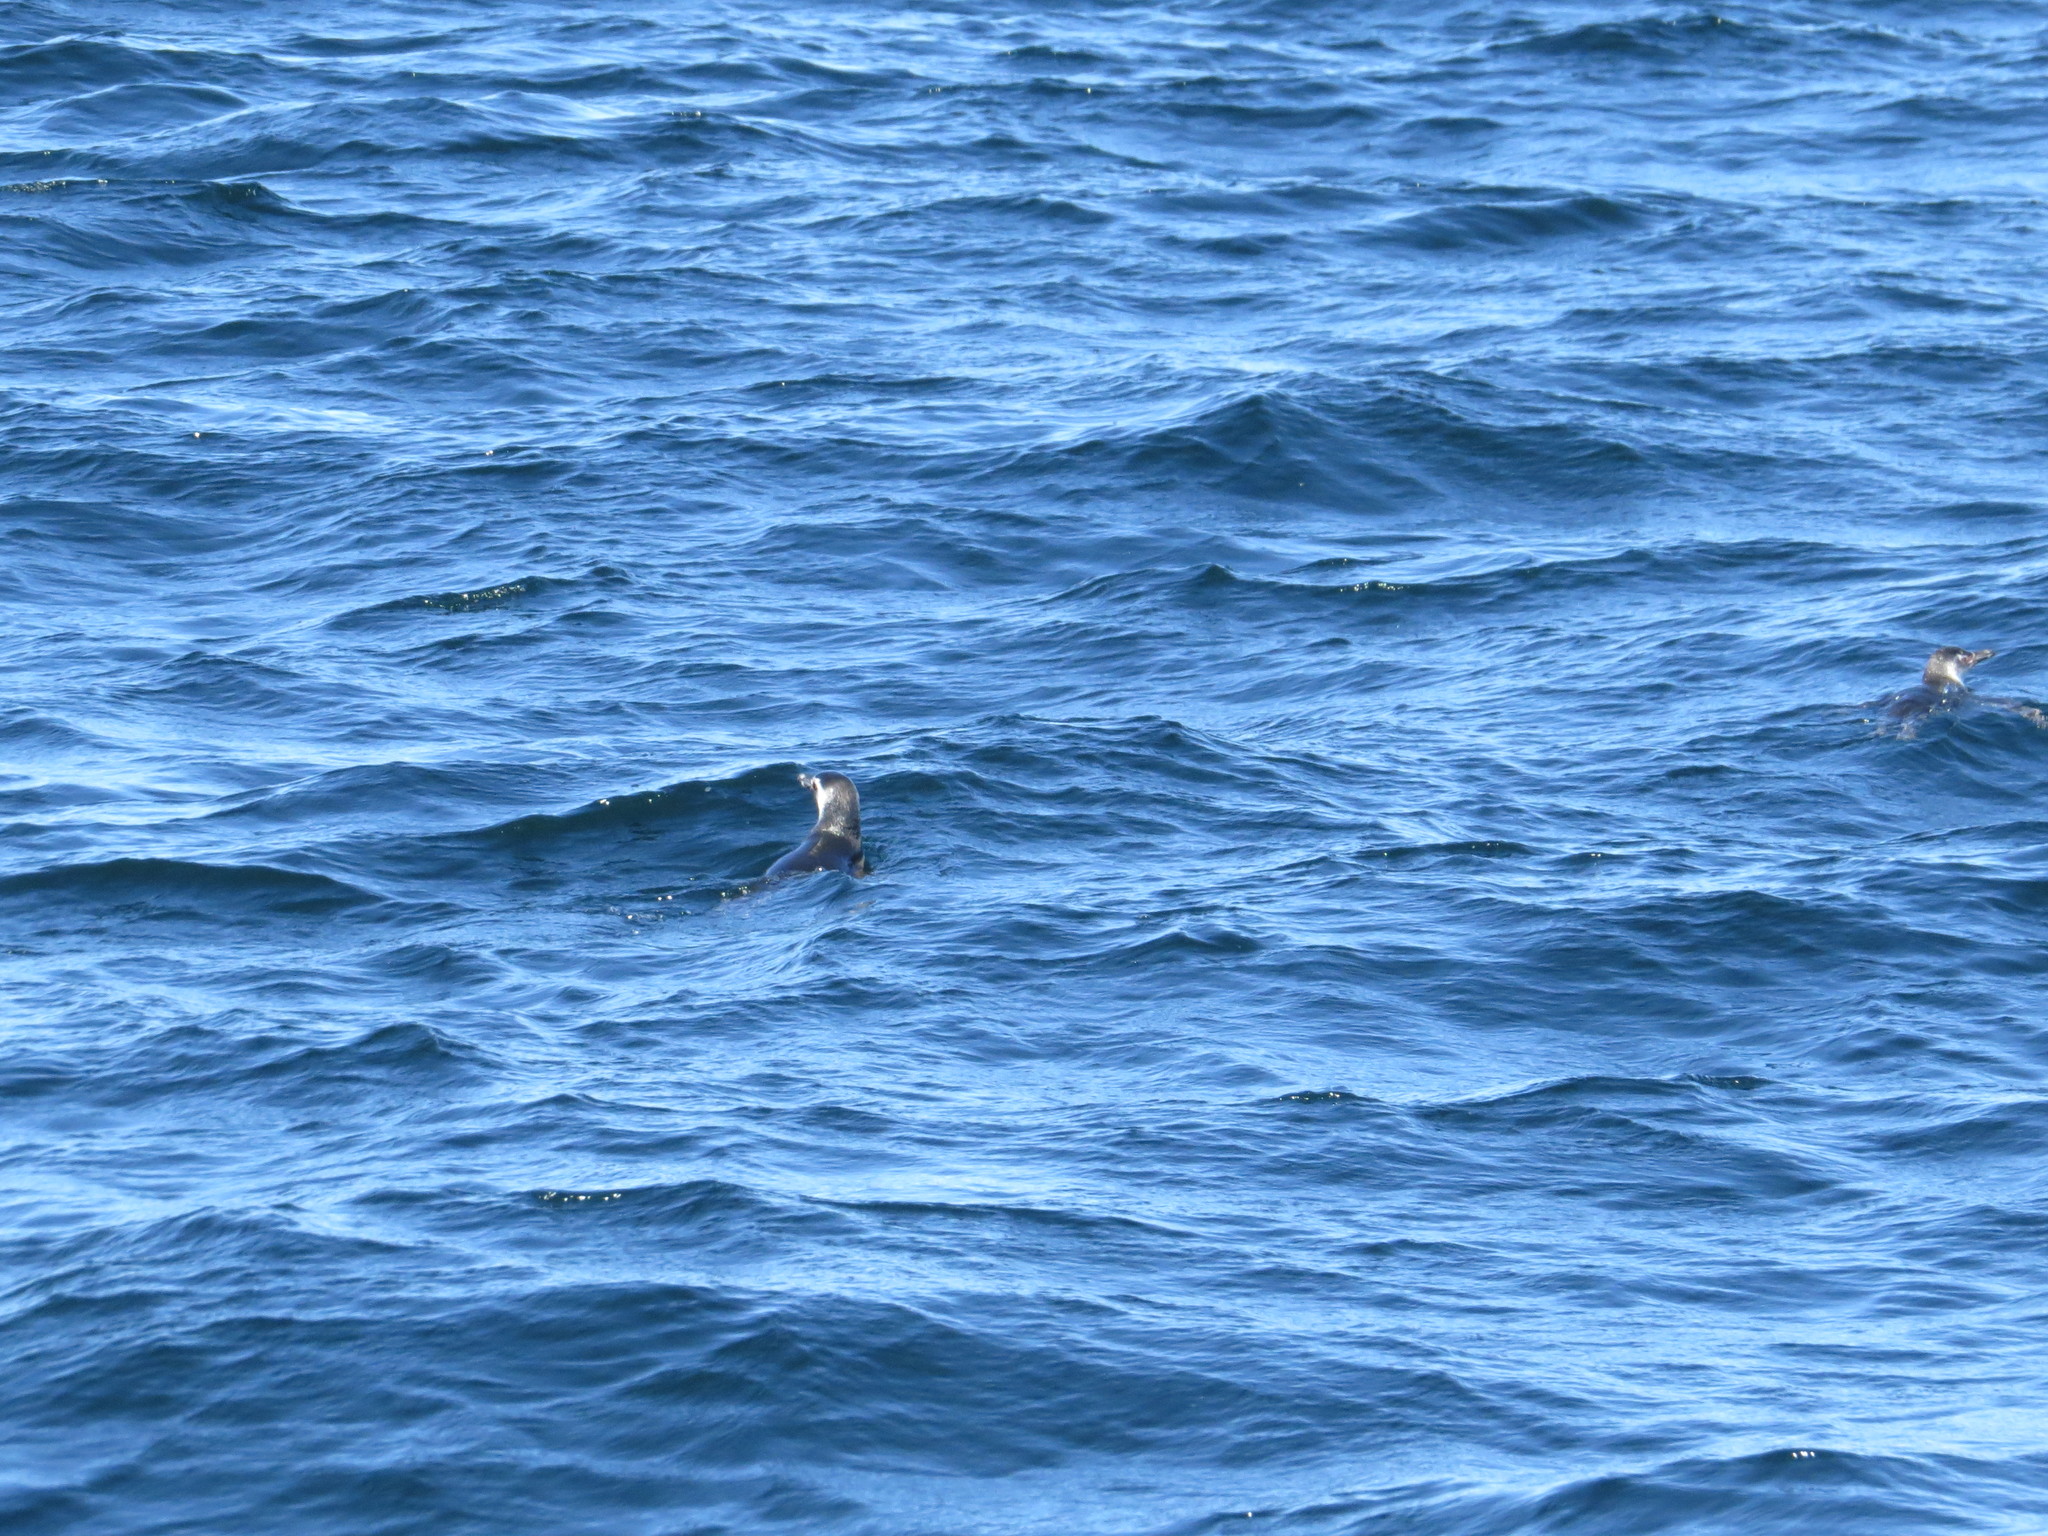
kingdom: Animalia
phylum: Chordata
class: Aves
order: Sphenisciformes
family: Spheniscidae
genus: Spheniscus
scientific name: Spheniscus magellanicus
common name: Magellanic penguin
